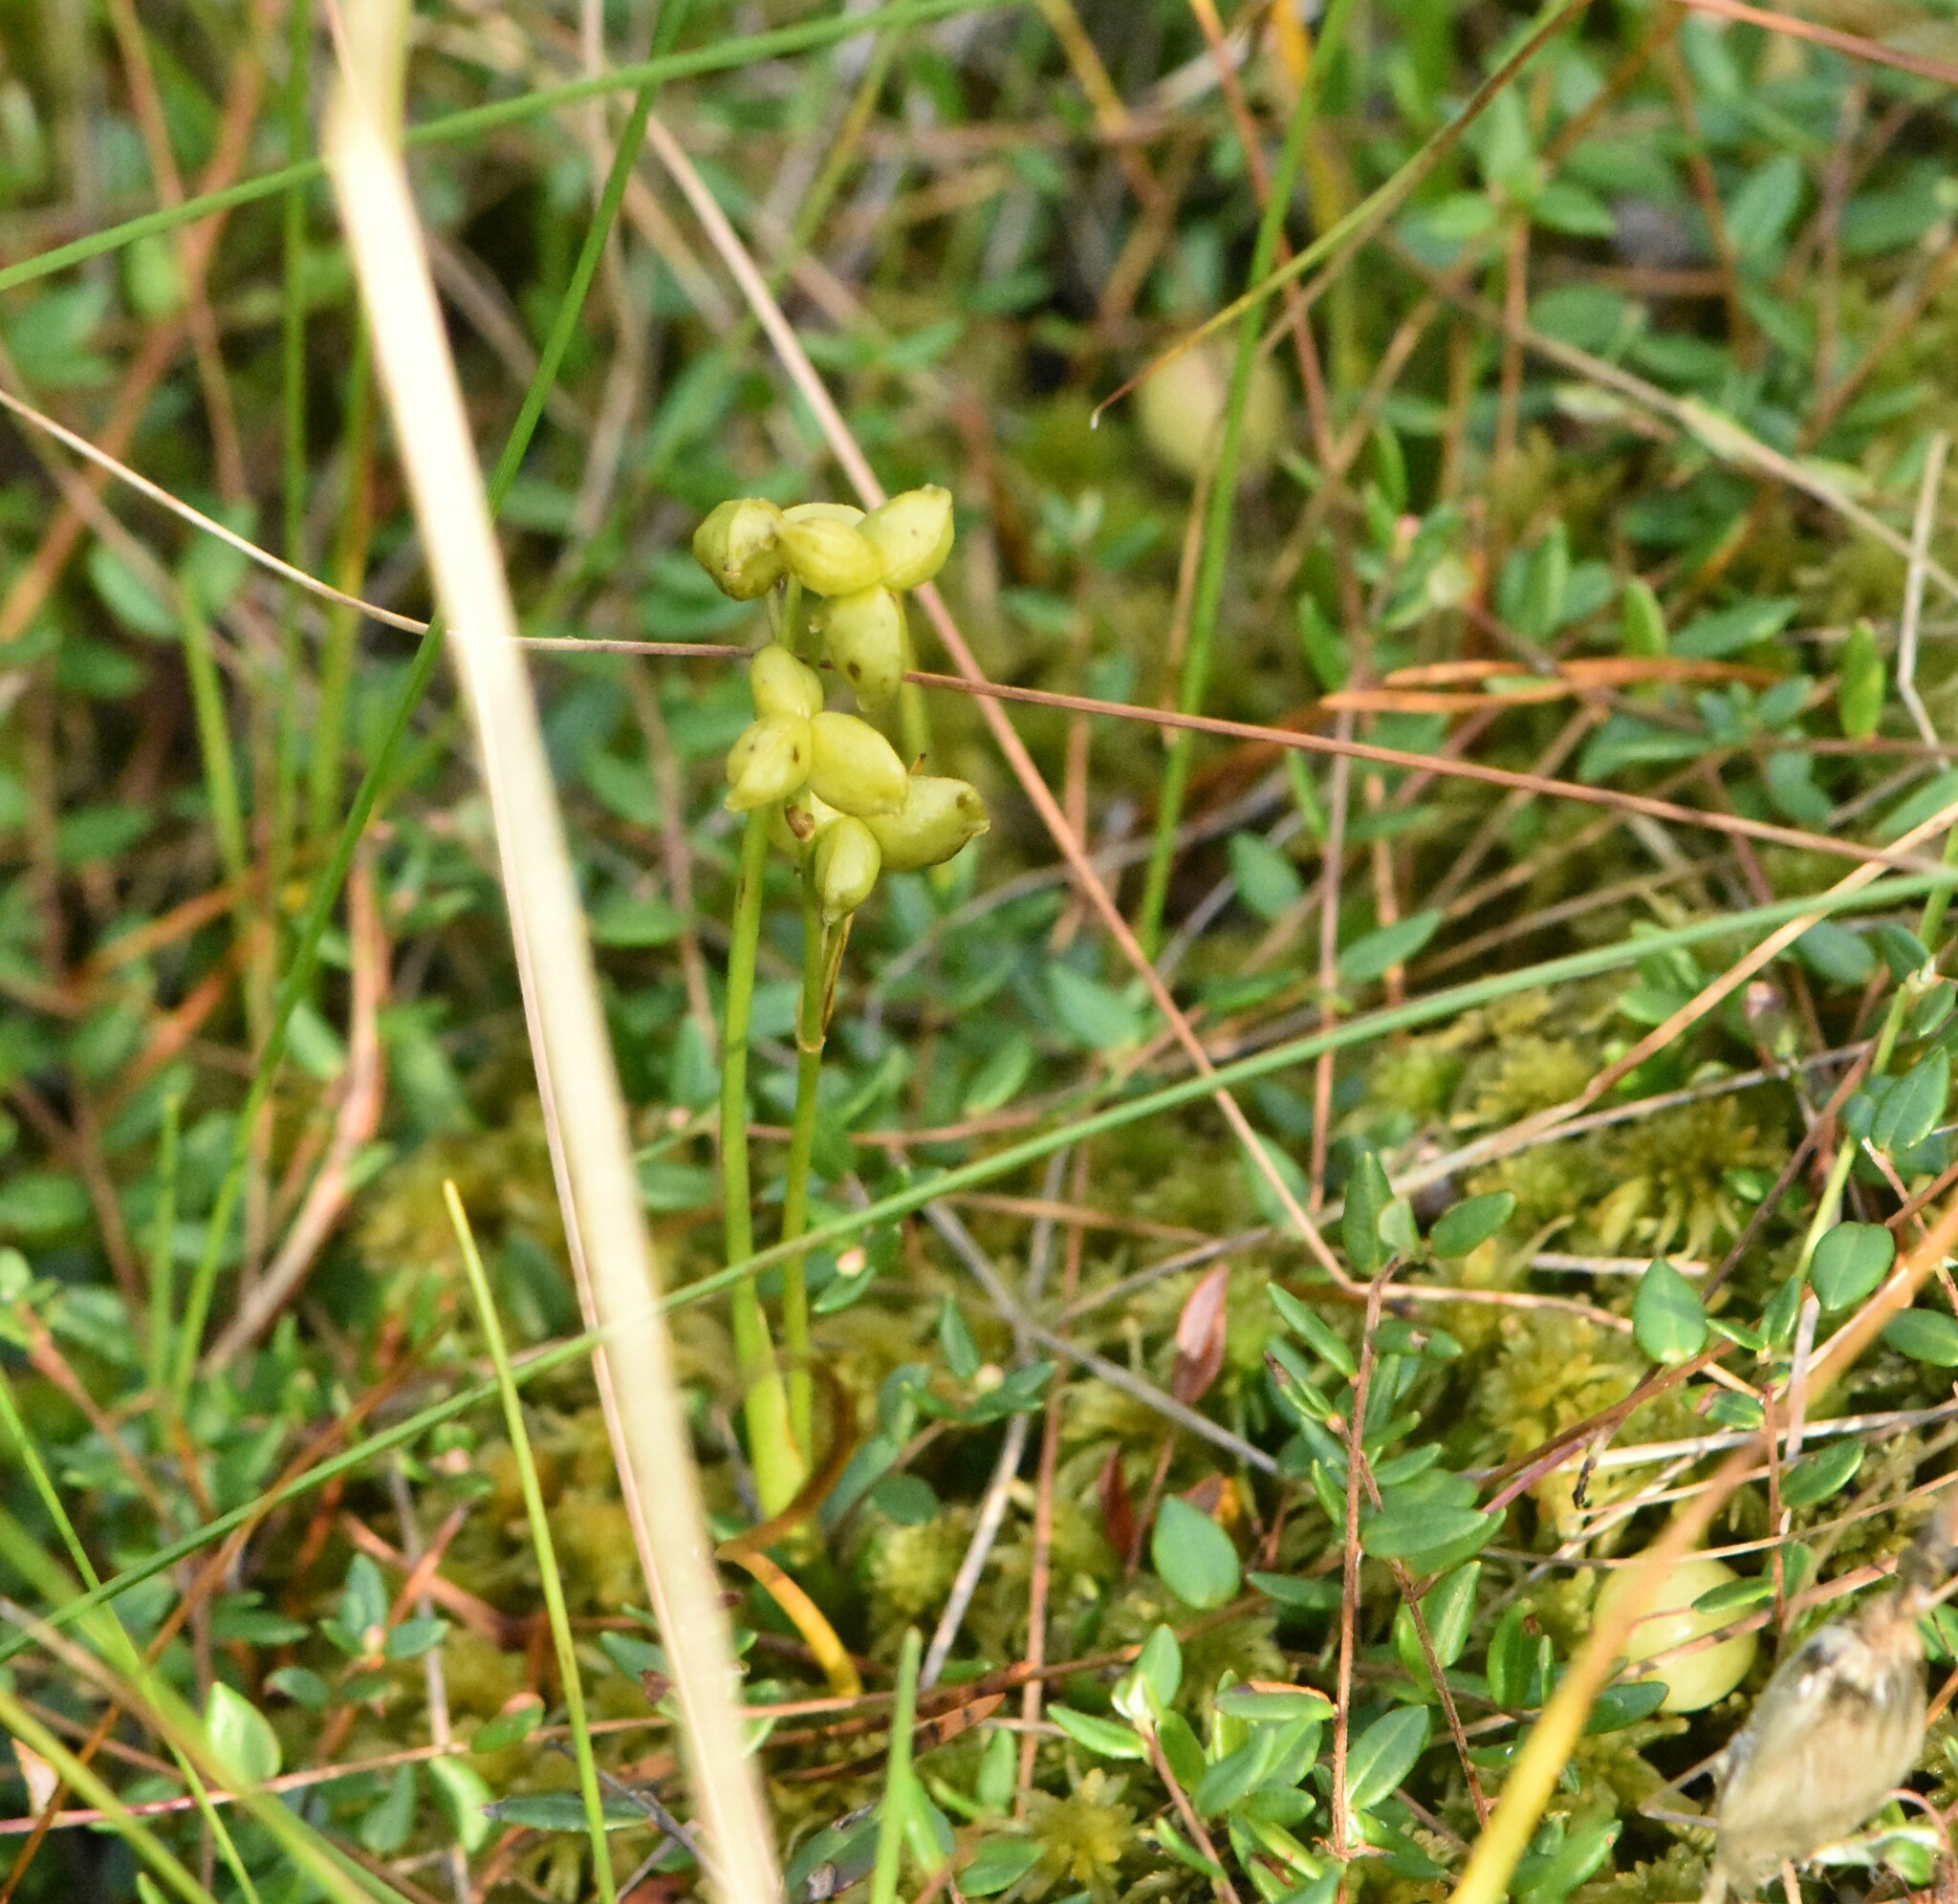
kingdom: Plantae
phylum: Tracheophyta
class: Liliopsida
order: Alismatales
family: Scheuchzeriaceae
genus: Scheuchzeria
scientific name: Scheuchzeria palustris
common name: Rannoch-rush
